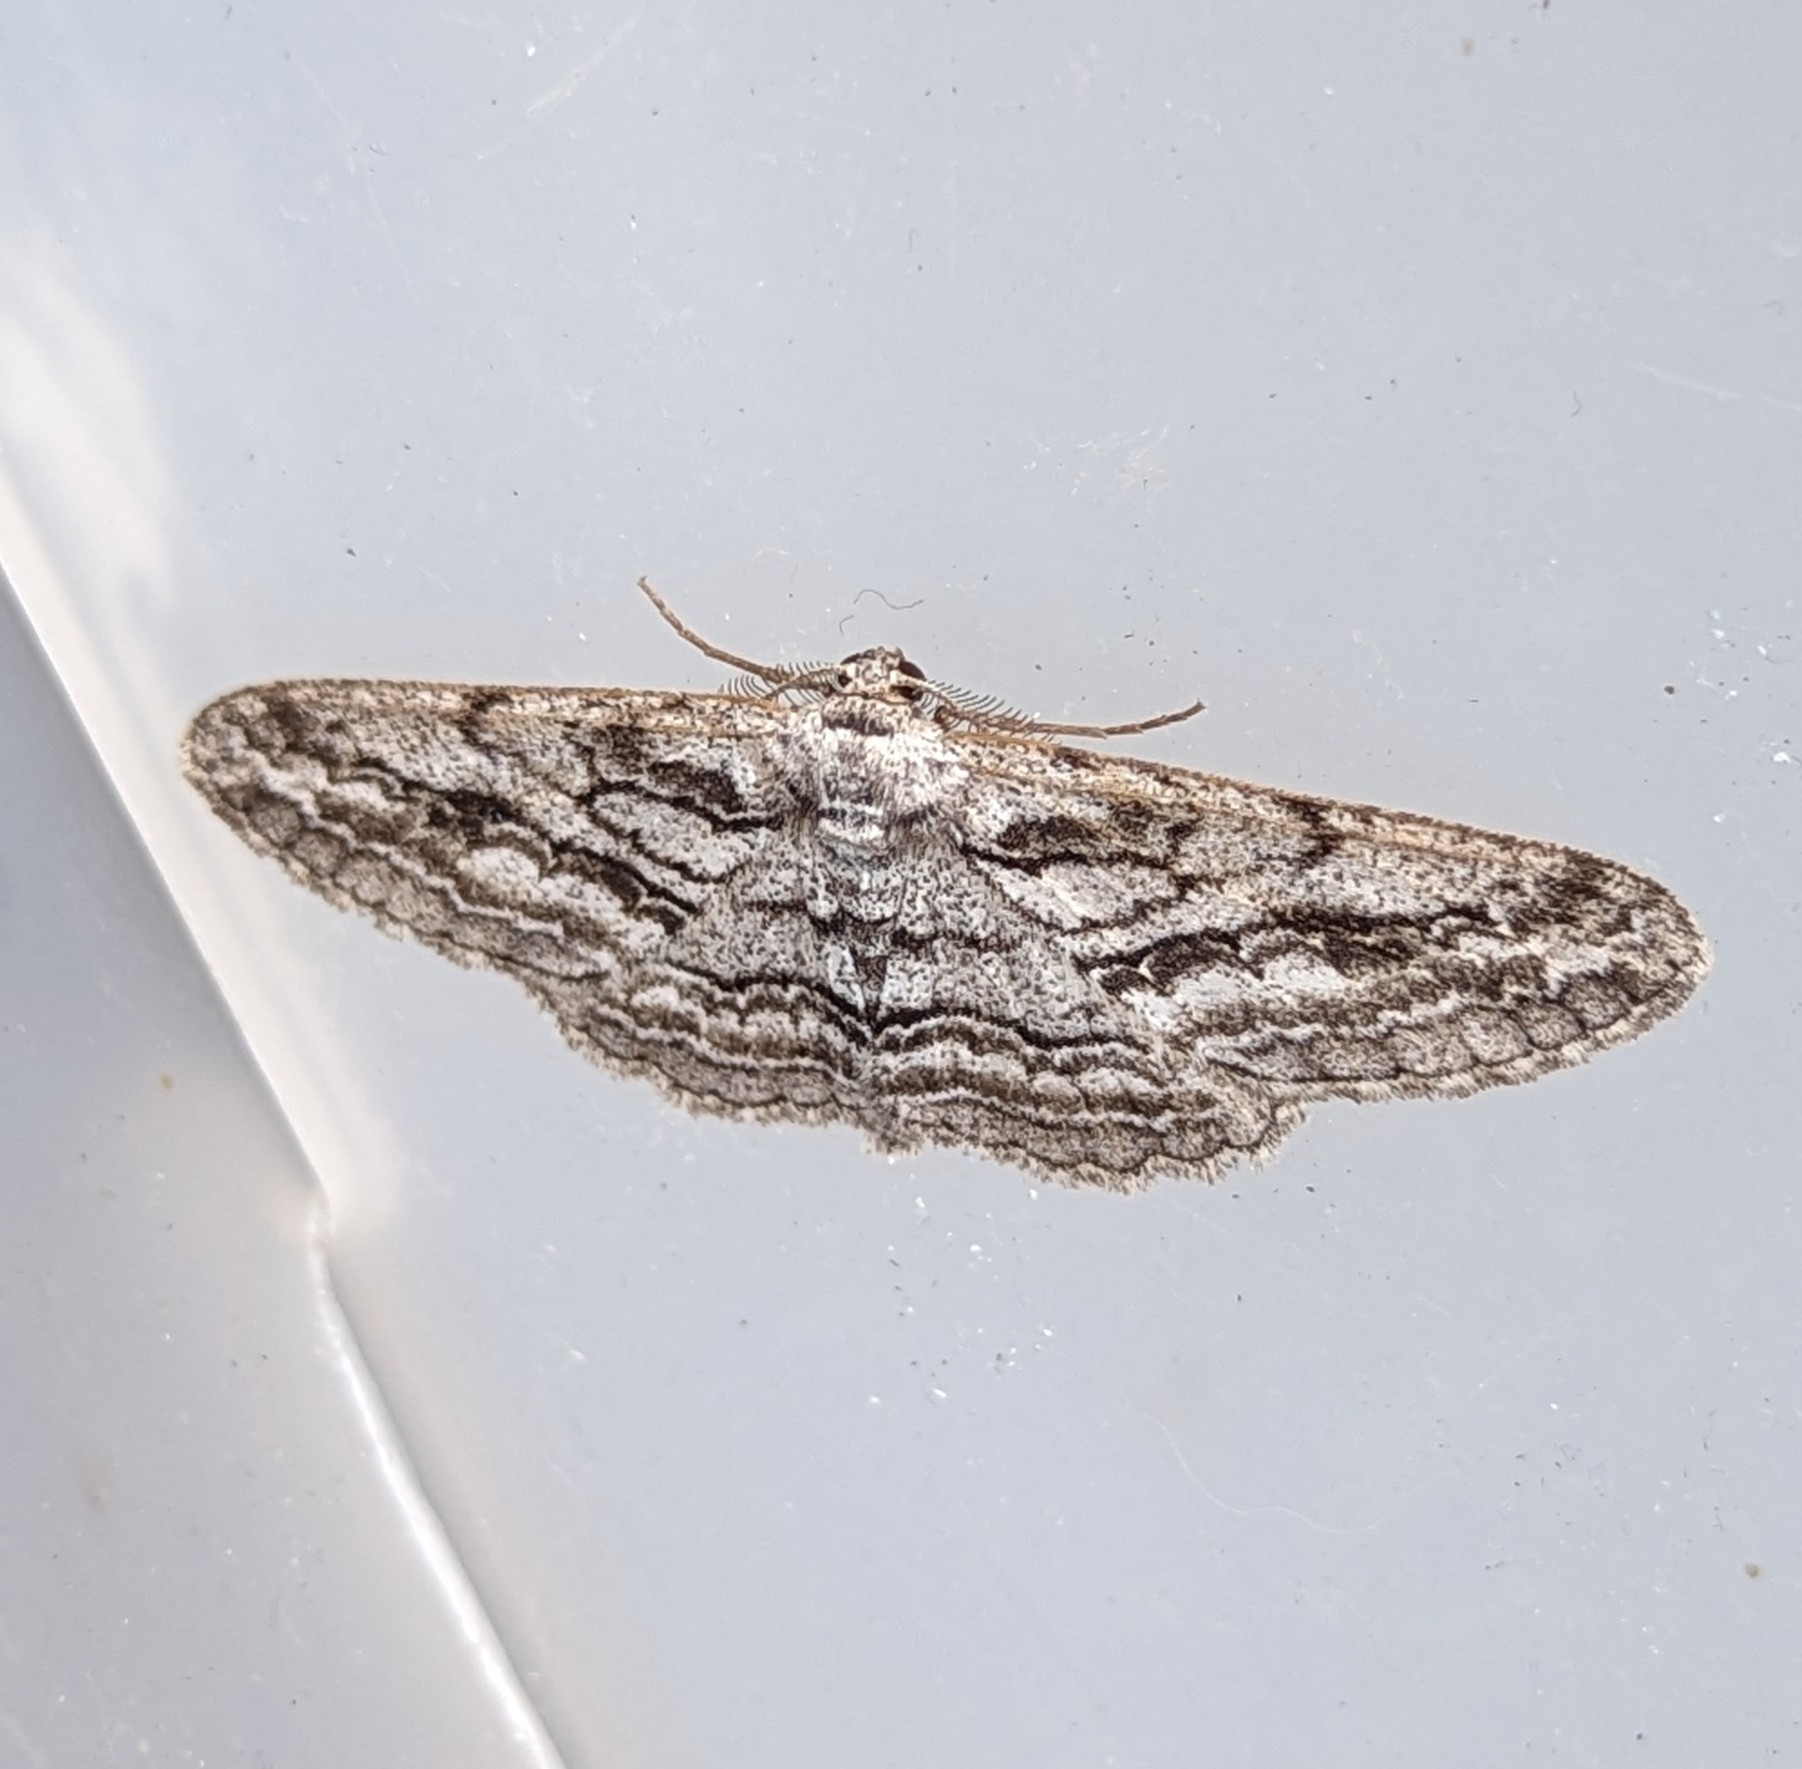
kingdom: Animalia
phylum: Arthropoda
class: Insecta
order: Lepidoptera
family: Geometridae
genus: Stenoporpia
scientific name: Stenoporpia excelsaria
